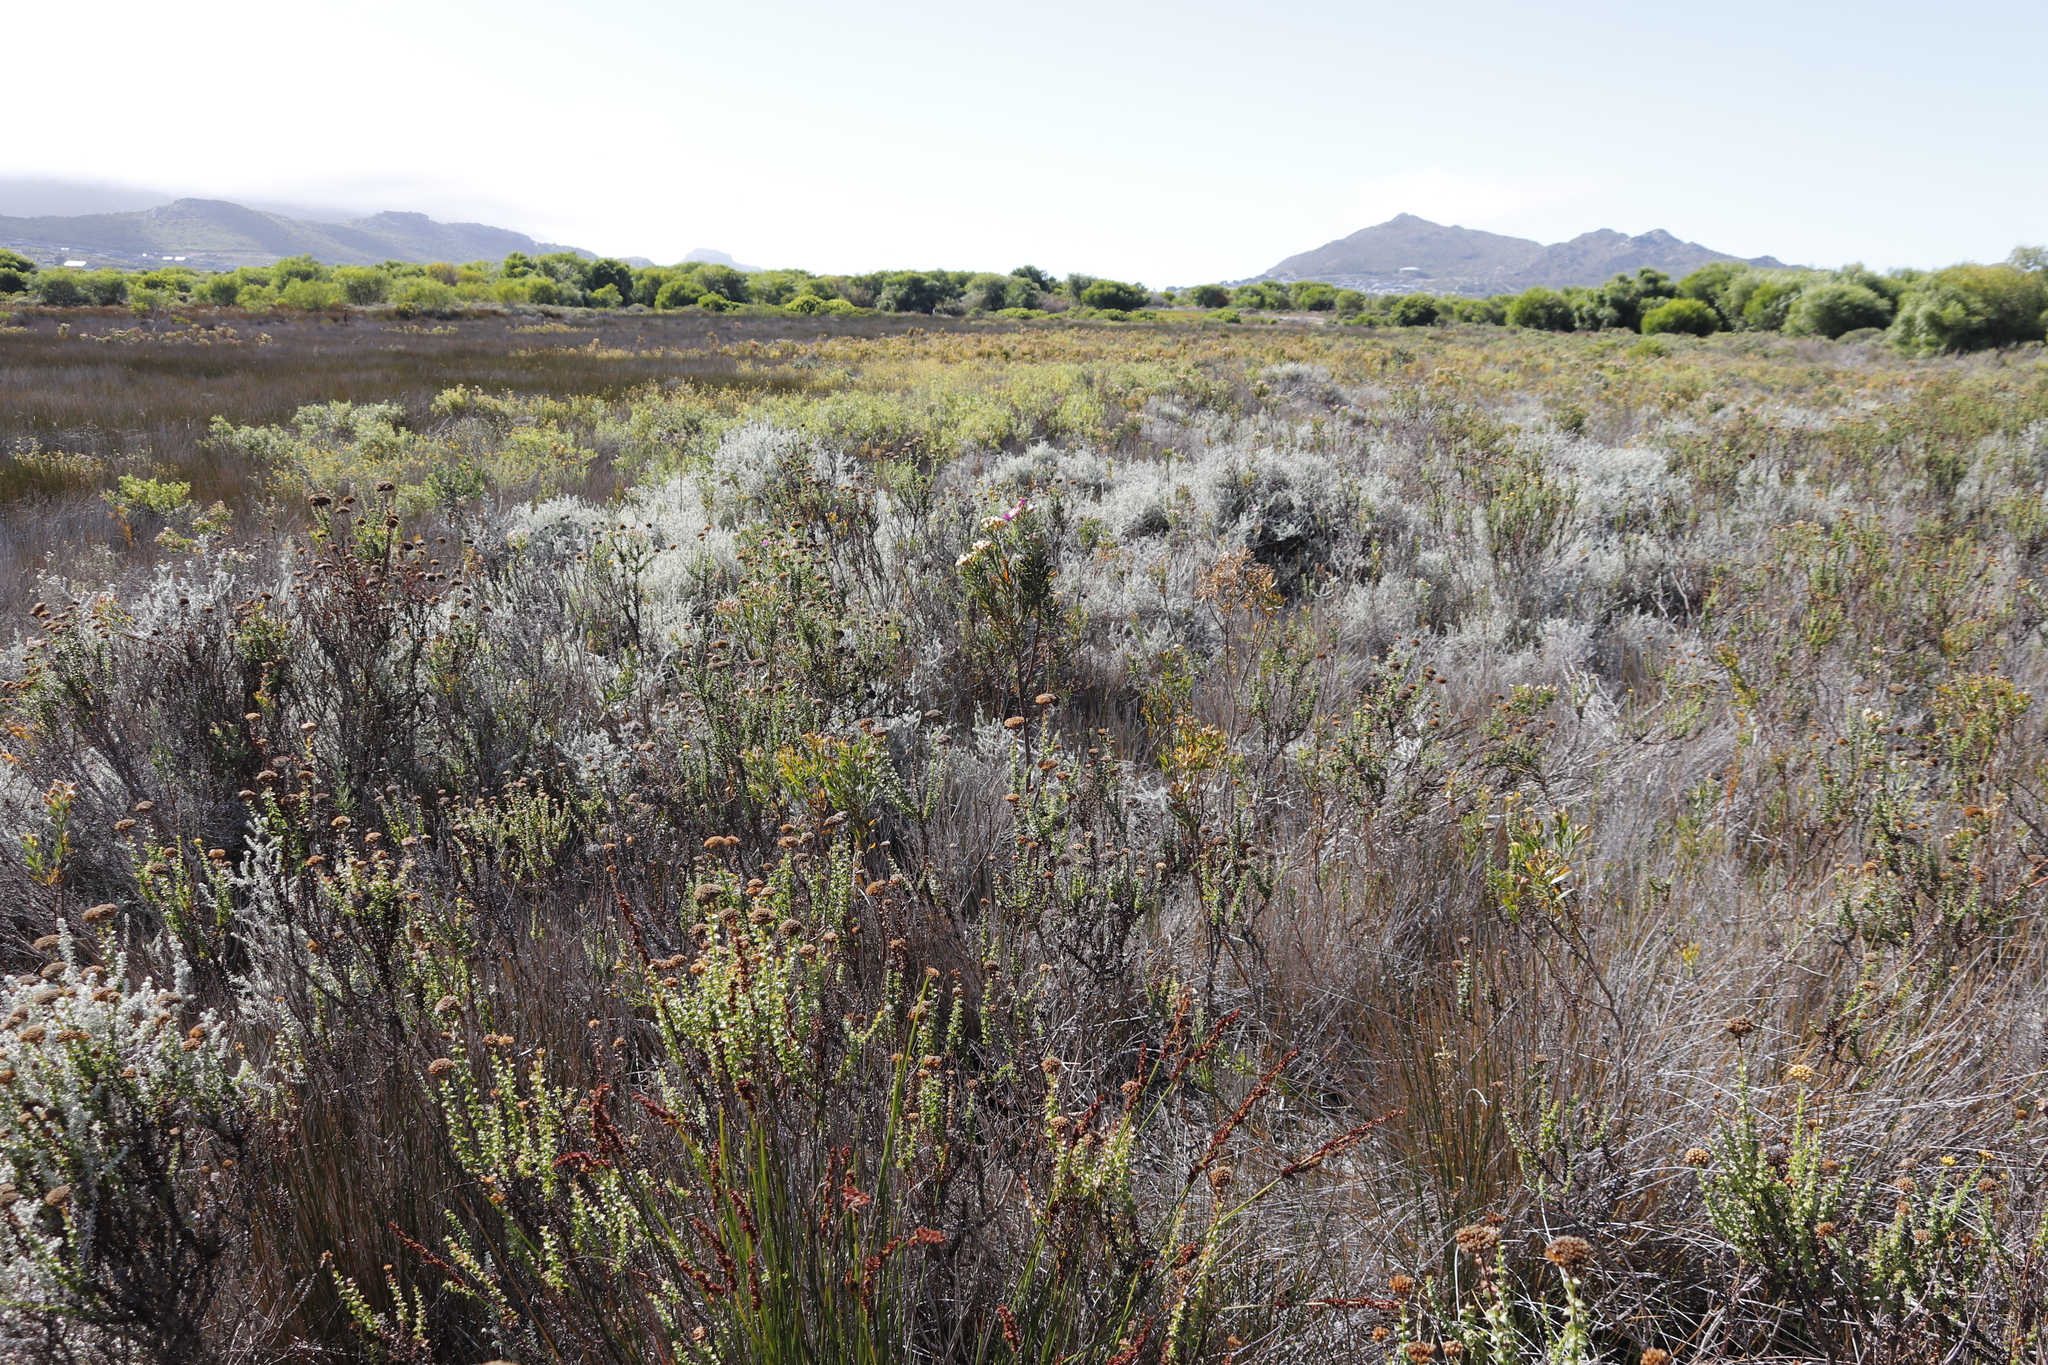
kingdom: Plantae
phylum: Tracheophyta
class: Magnoliopsida
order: Asterales
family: Asteraceae
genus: Athanasia
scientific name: Athanasia dentata
